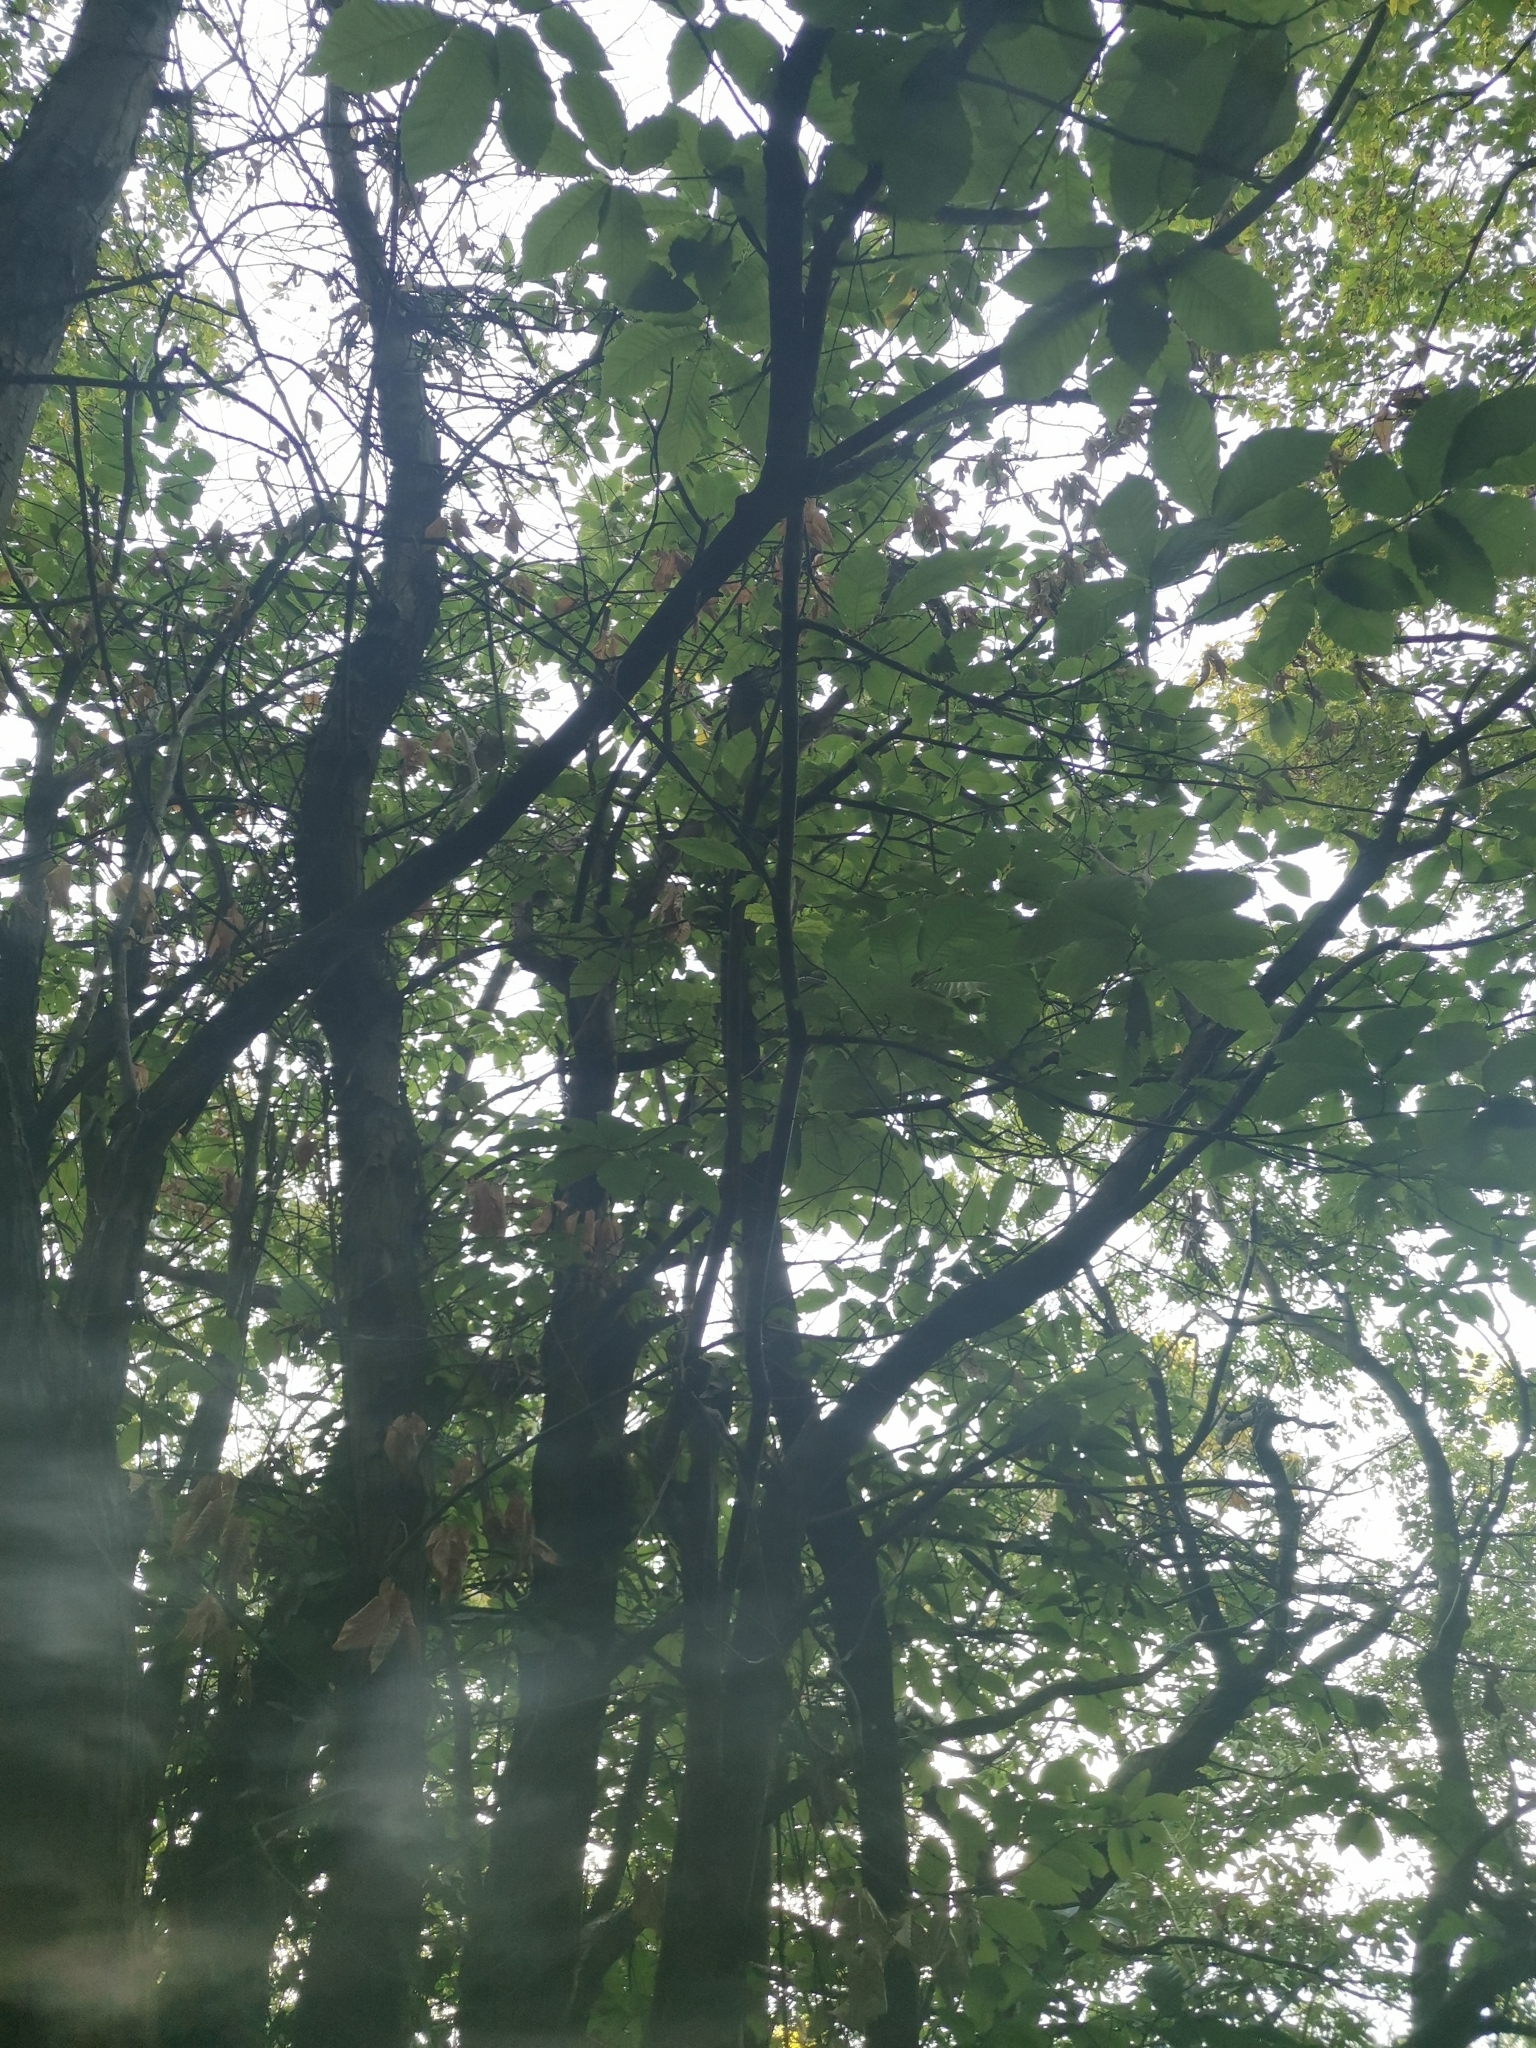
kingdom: Plantae
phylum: Tracheophyta
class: Magnoliopsida
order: Fagales
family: Fagaceae
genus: Castanea
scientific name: Castanea sativa
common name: Sweet chestnut
